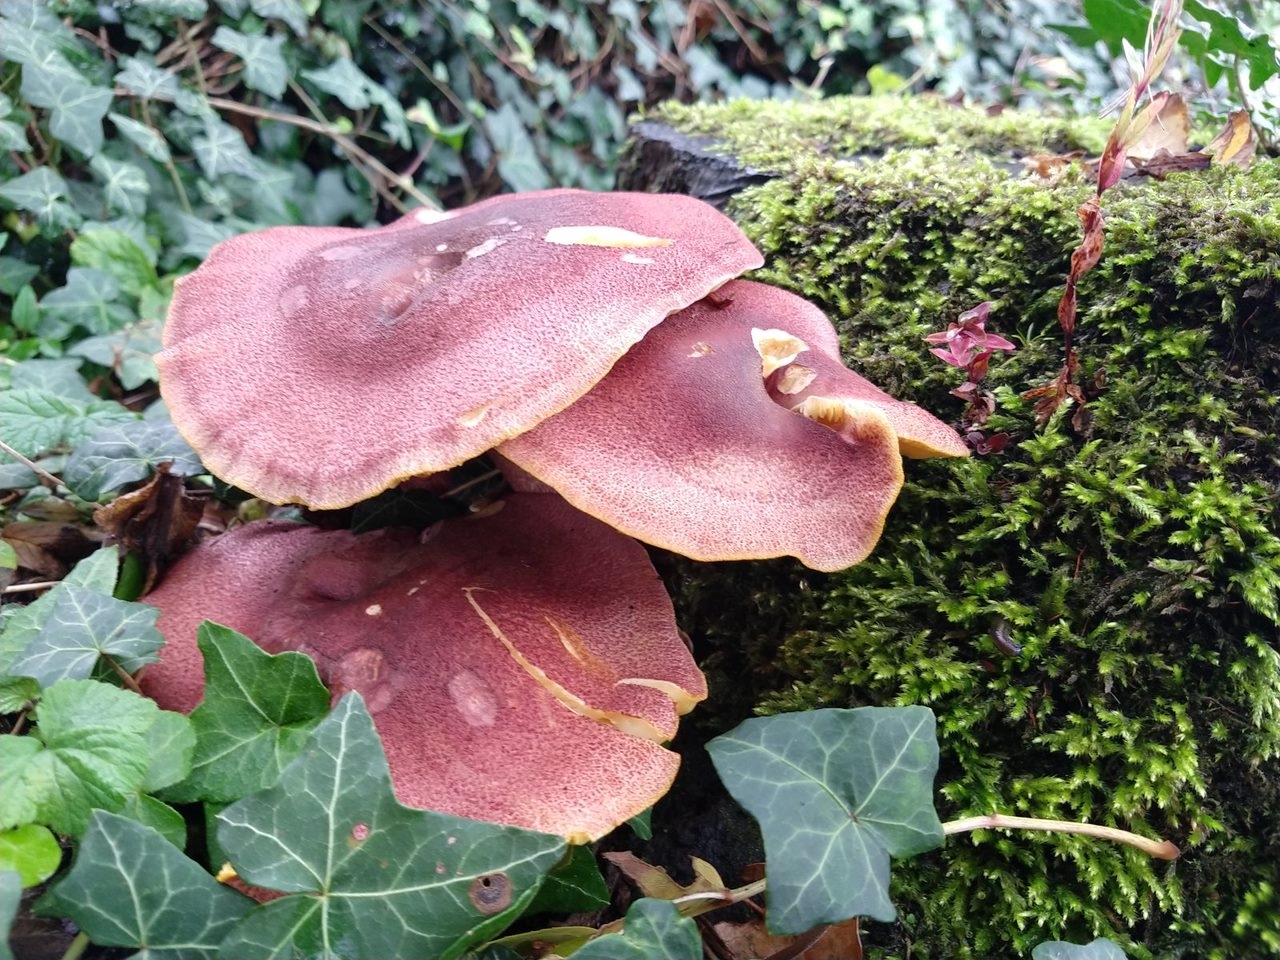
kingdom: Fungi
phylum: Basidiomycota
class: Agaricomycetes
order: Agaricales
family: Tricholomataceae
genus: Tricholomopsis
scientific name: Tricholomopsis rutilans
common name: Plums and custard
